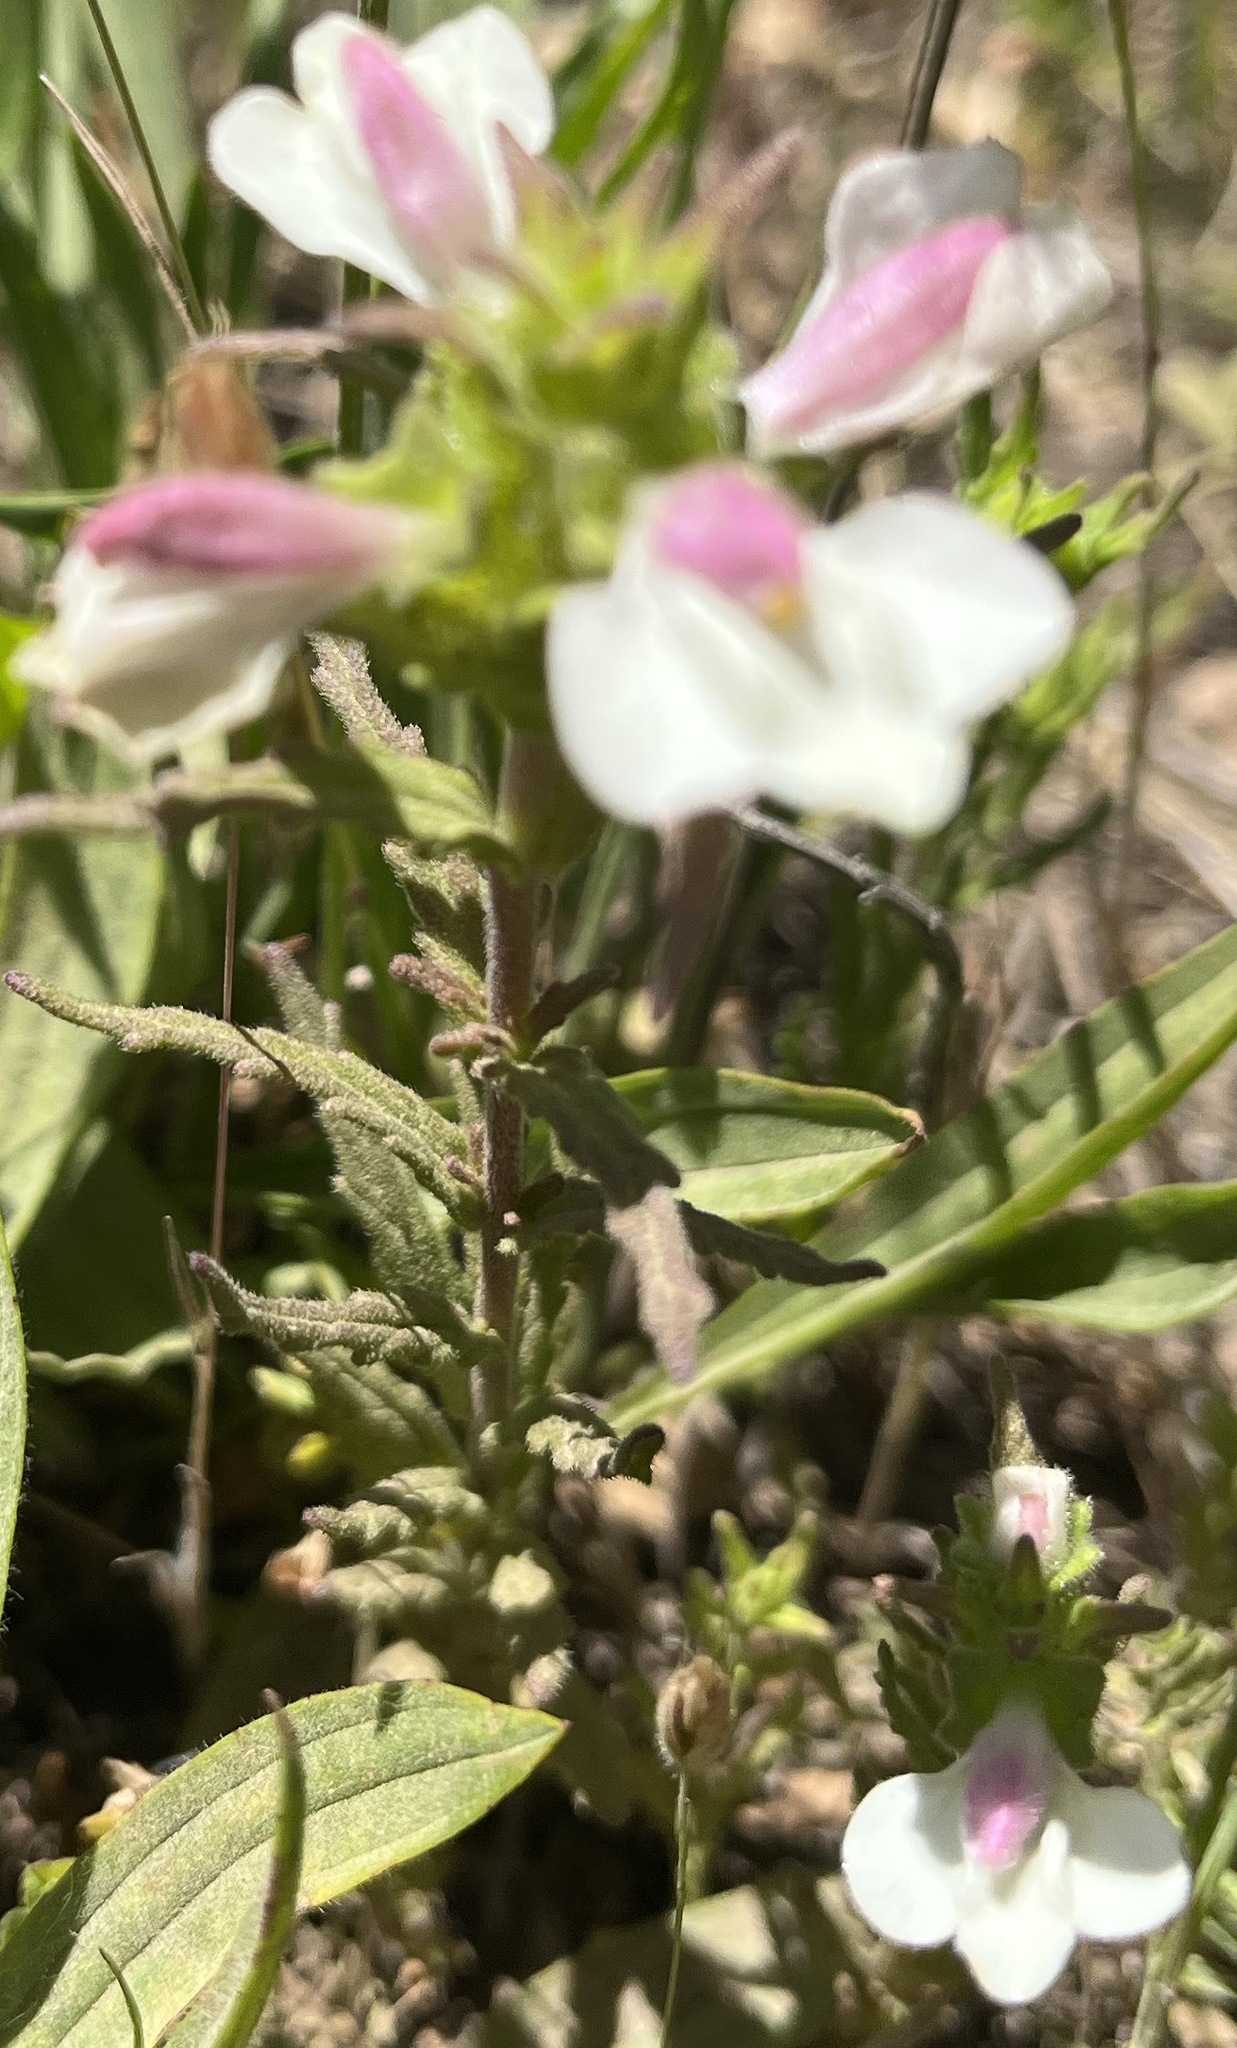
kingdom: Plantae
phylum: Tracheophyta
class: Magnoliopsida
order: Lamiales
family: Orobanchaceae
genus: Bellardia
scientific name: Bellardia trixago
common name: Mediterranean lineseed
